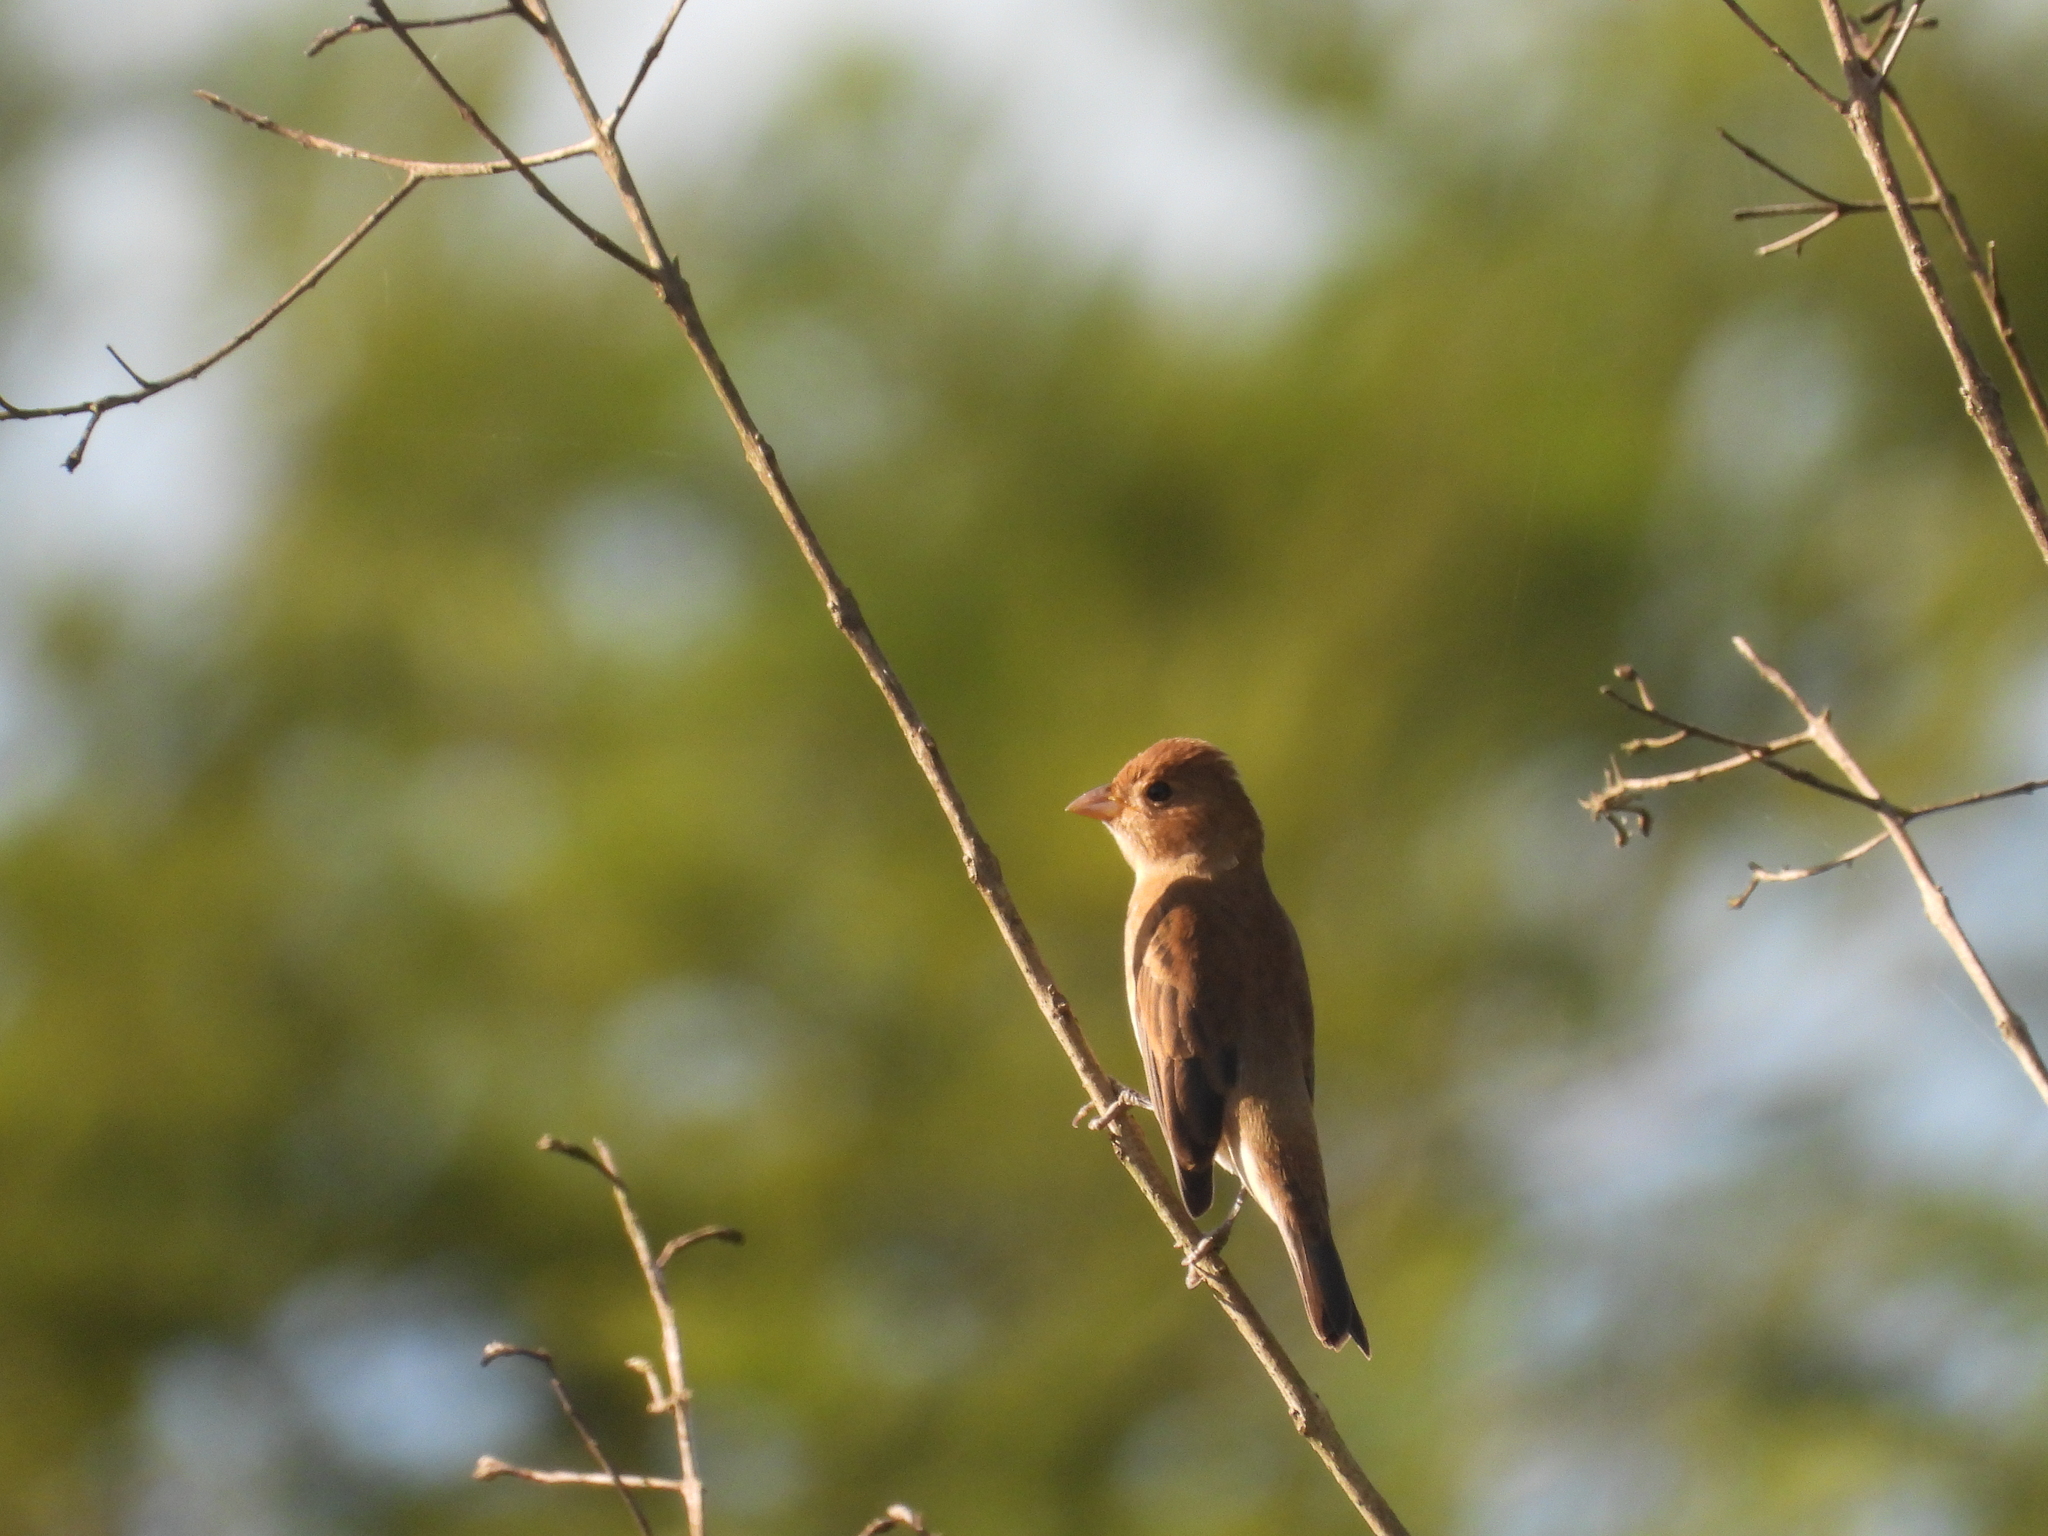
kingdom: Animalia
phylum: Chordata
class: Aves
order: Passeriformes
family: Cardinalidae
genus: Passerina
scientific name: Passerina cyanea
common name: Indigo bunting
